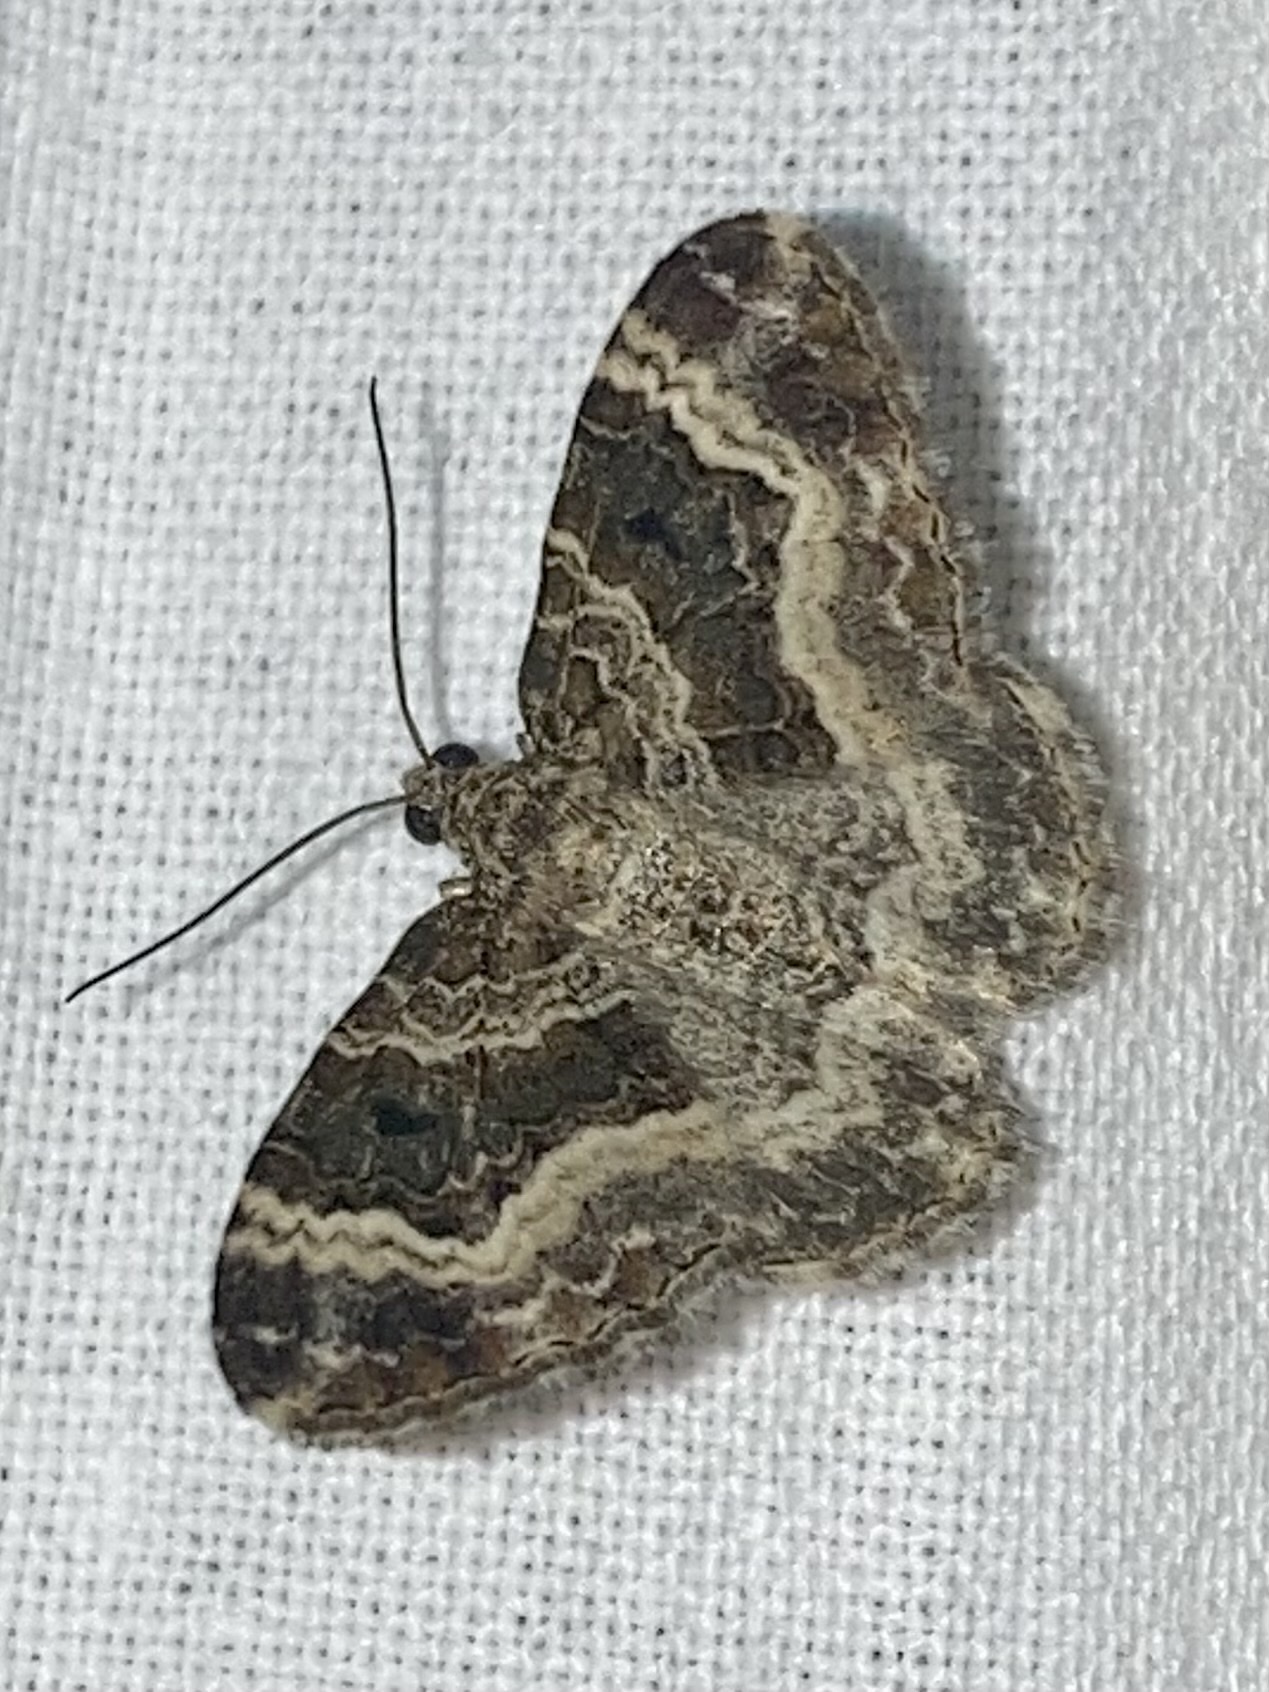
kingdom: Animalia
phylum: Arthropoda
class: Insecta
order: Lepidoptera
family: Geometridae
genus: Epirrhoe
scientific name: Epirrhoe alternata
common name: Common carpet
